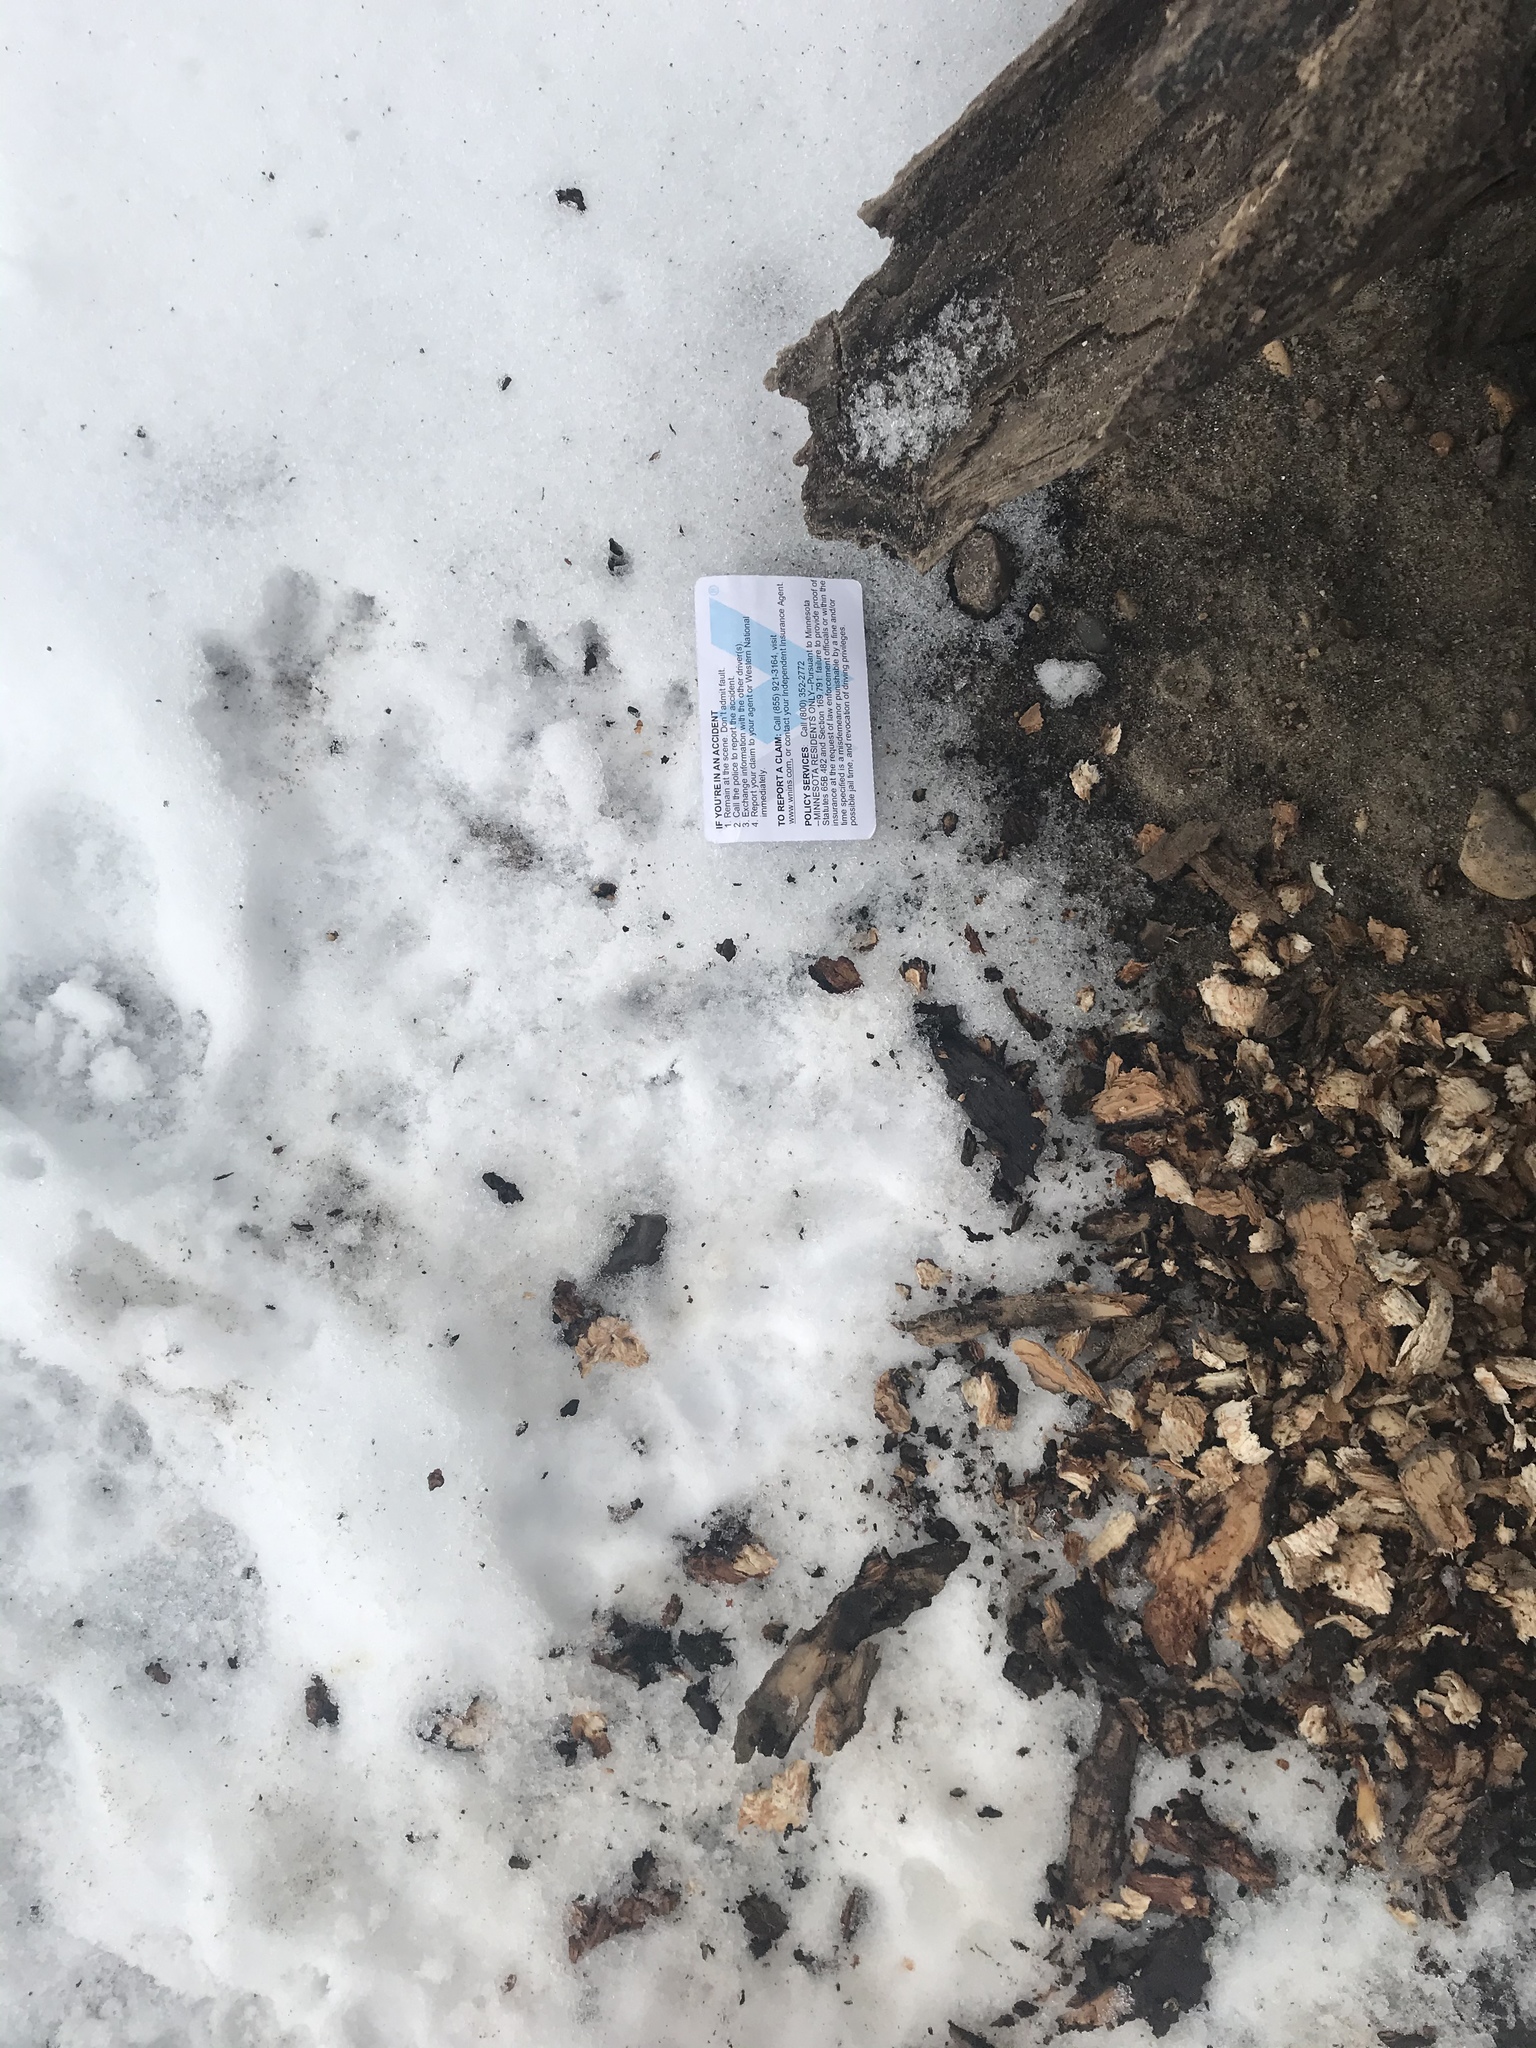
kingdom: Animalia
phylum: Chordata
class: Mammalia
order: Rodentia
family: Castoridae
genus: Castor
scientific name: Castor canadensis
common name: American beaver
